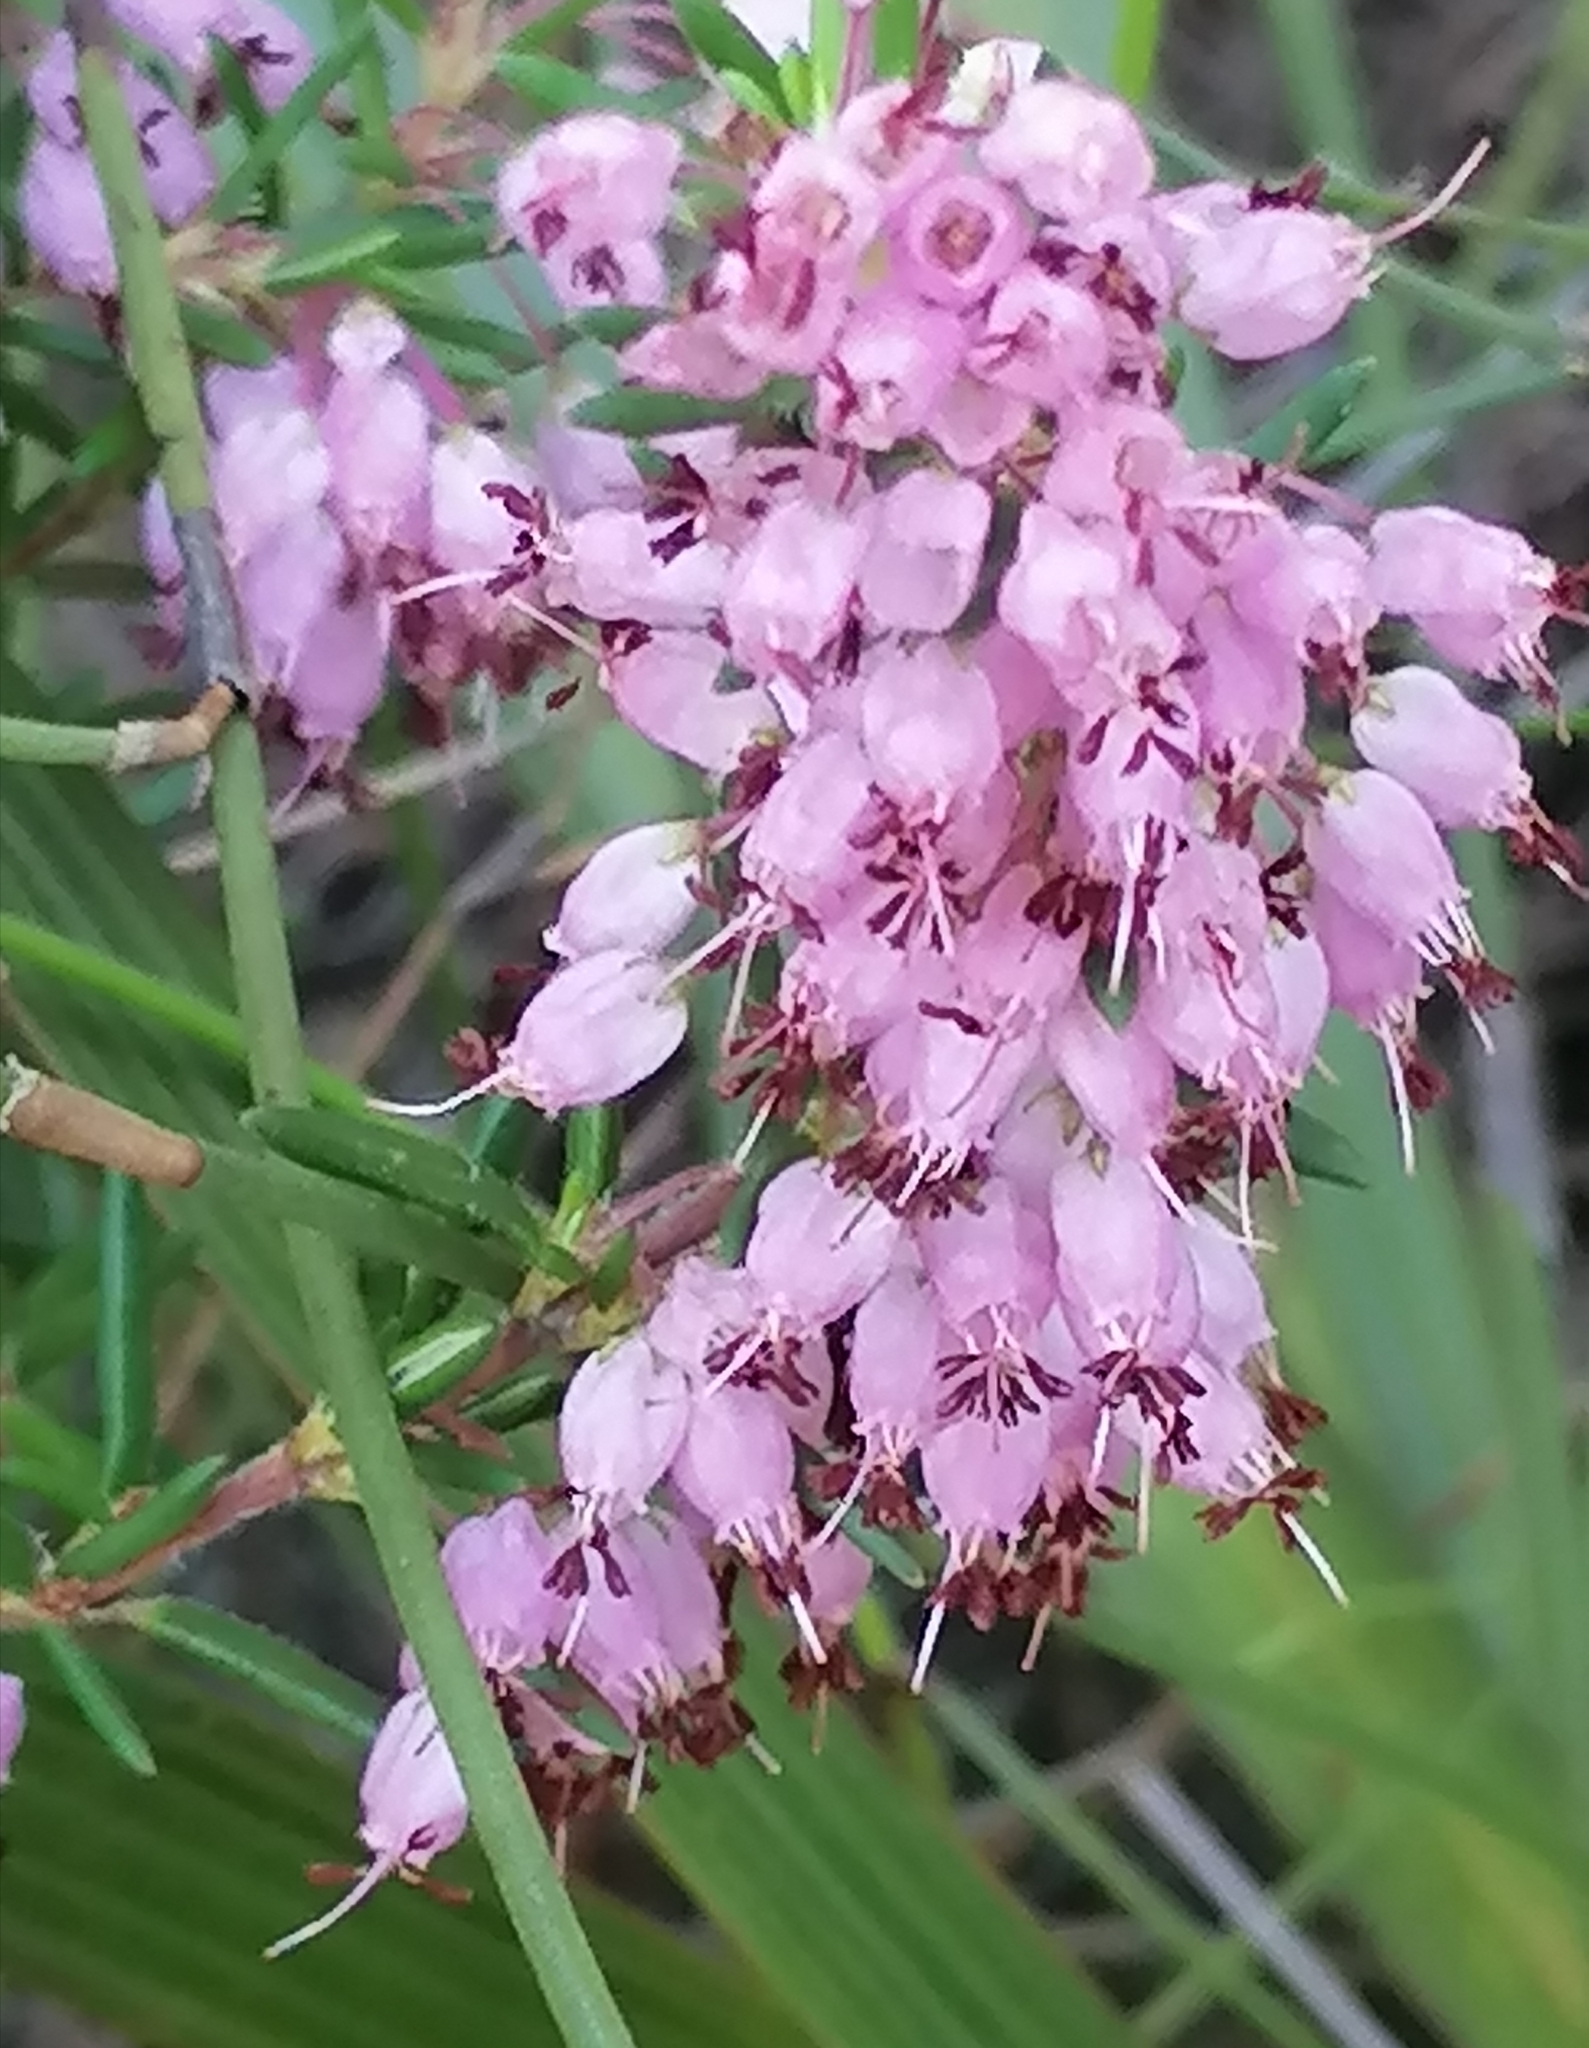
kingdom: Plantae
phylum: Tracheophyta
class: Magnoliopsida
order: Ericales
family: Ericaceae
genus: Erica
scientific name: Erica nudiflora
